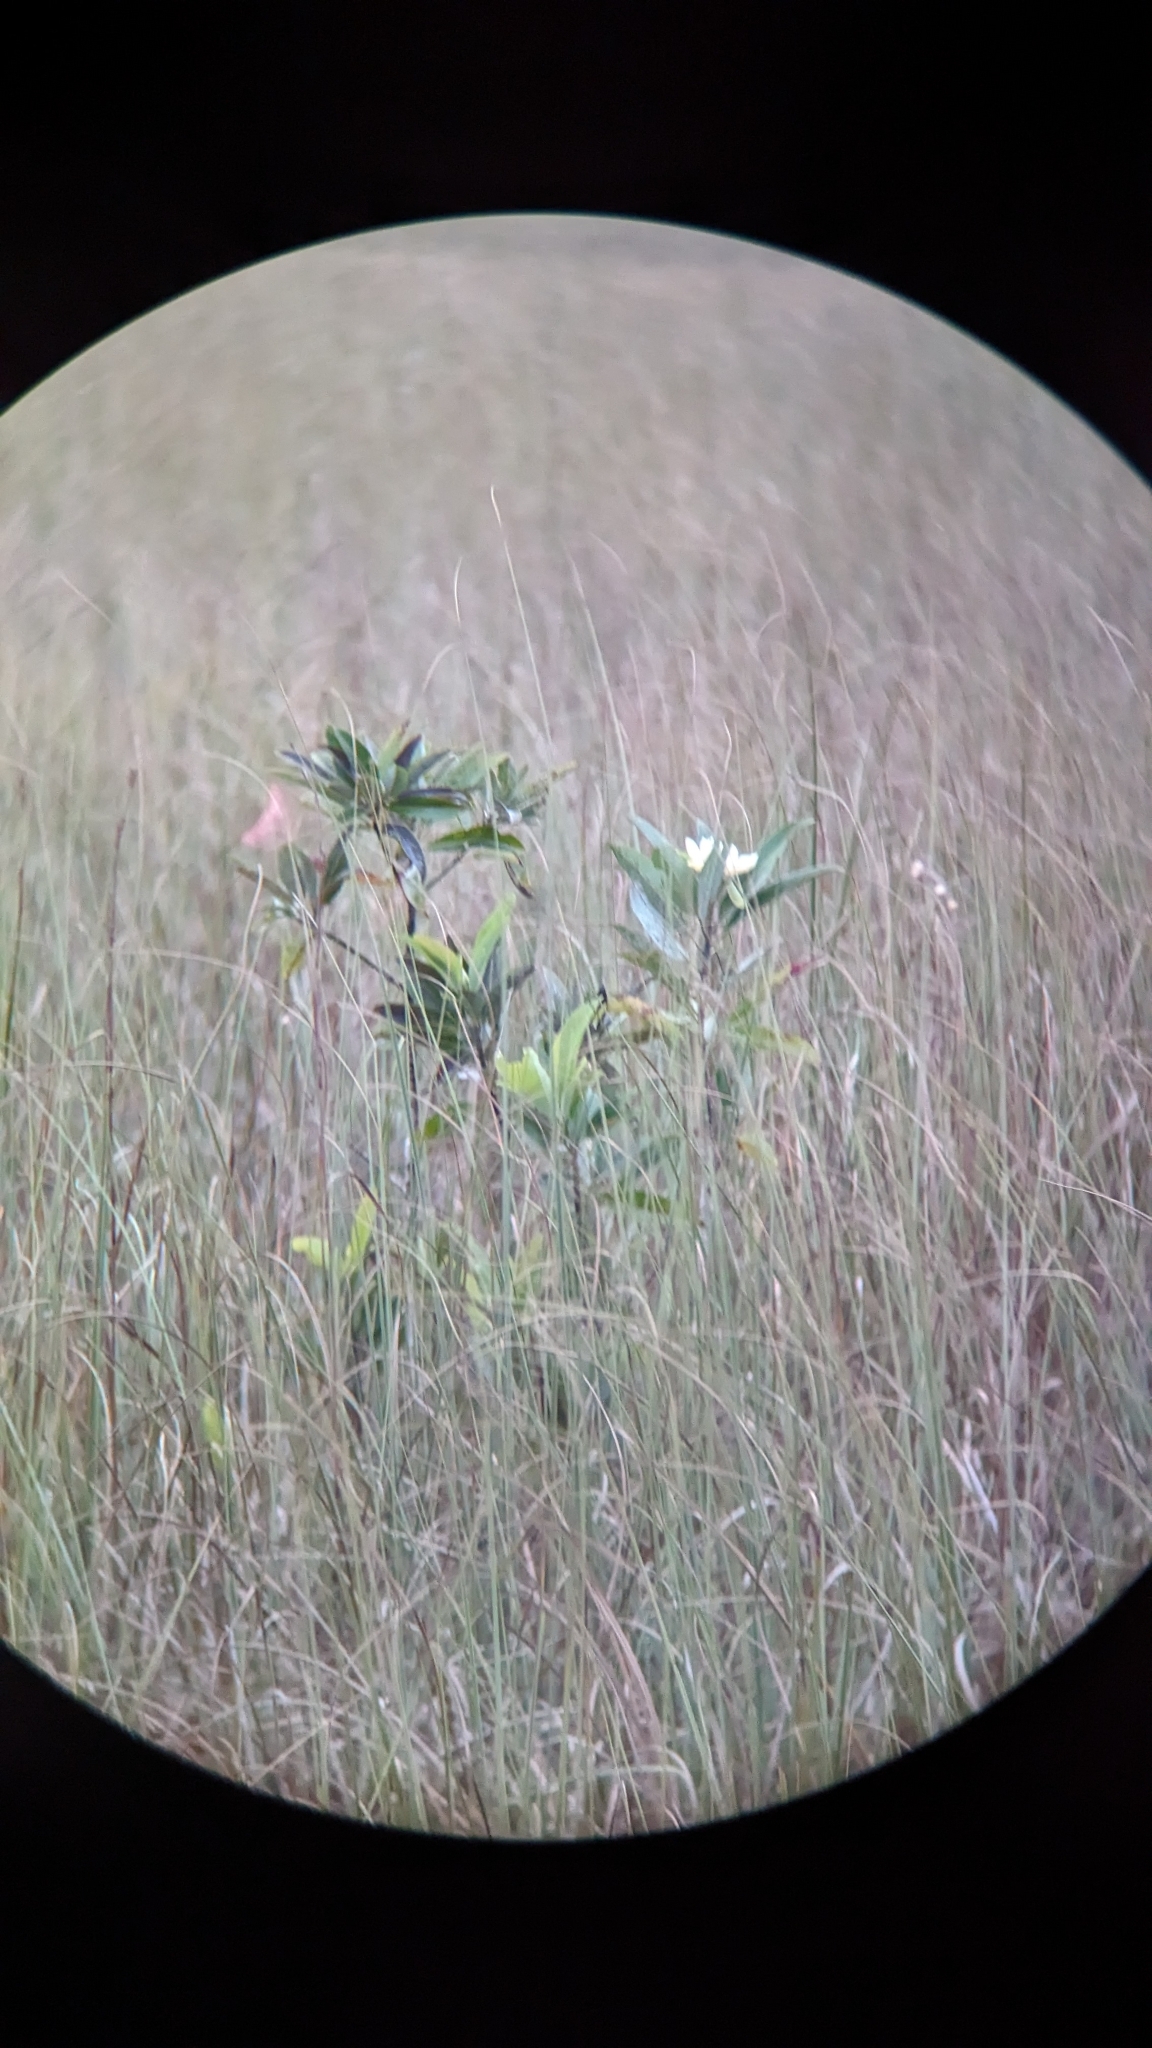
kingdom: Plantae
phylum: Tracheophyta
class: Magnoliopsida
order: Magnoliales
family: Magnoliaceae
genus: Magnolia
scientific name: Magnolia virginiana
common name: Swamp bay
